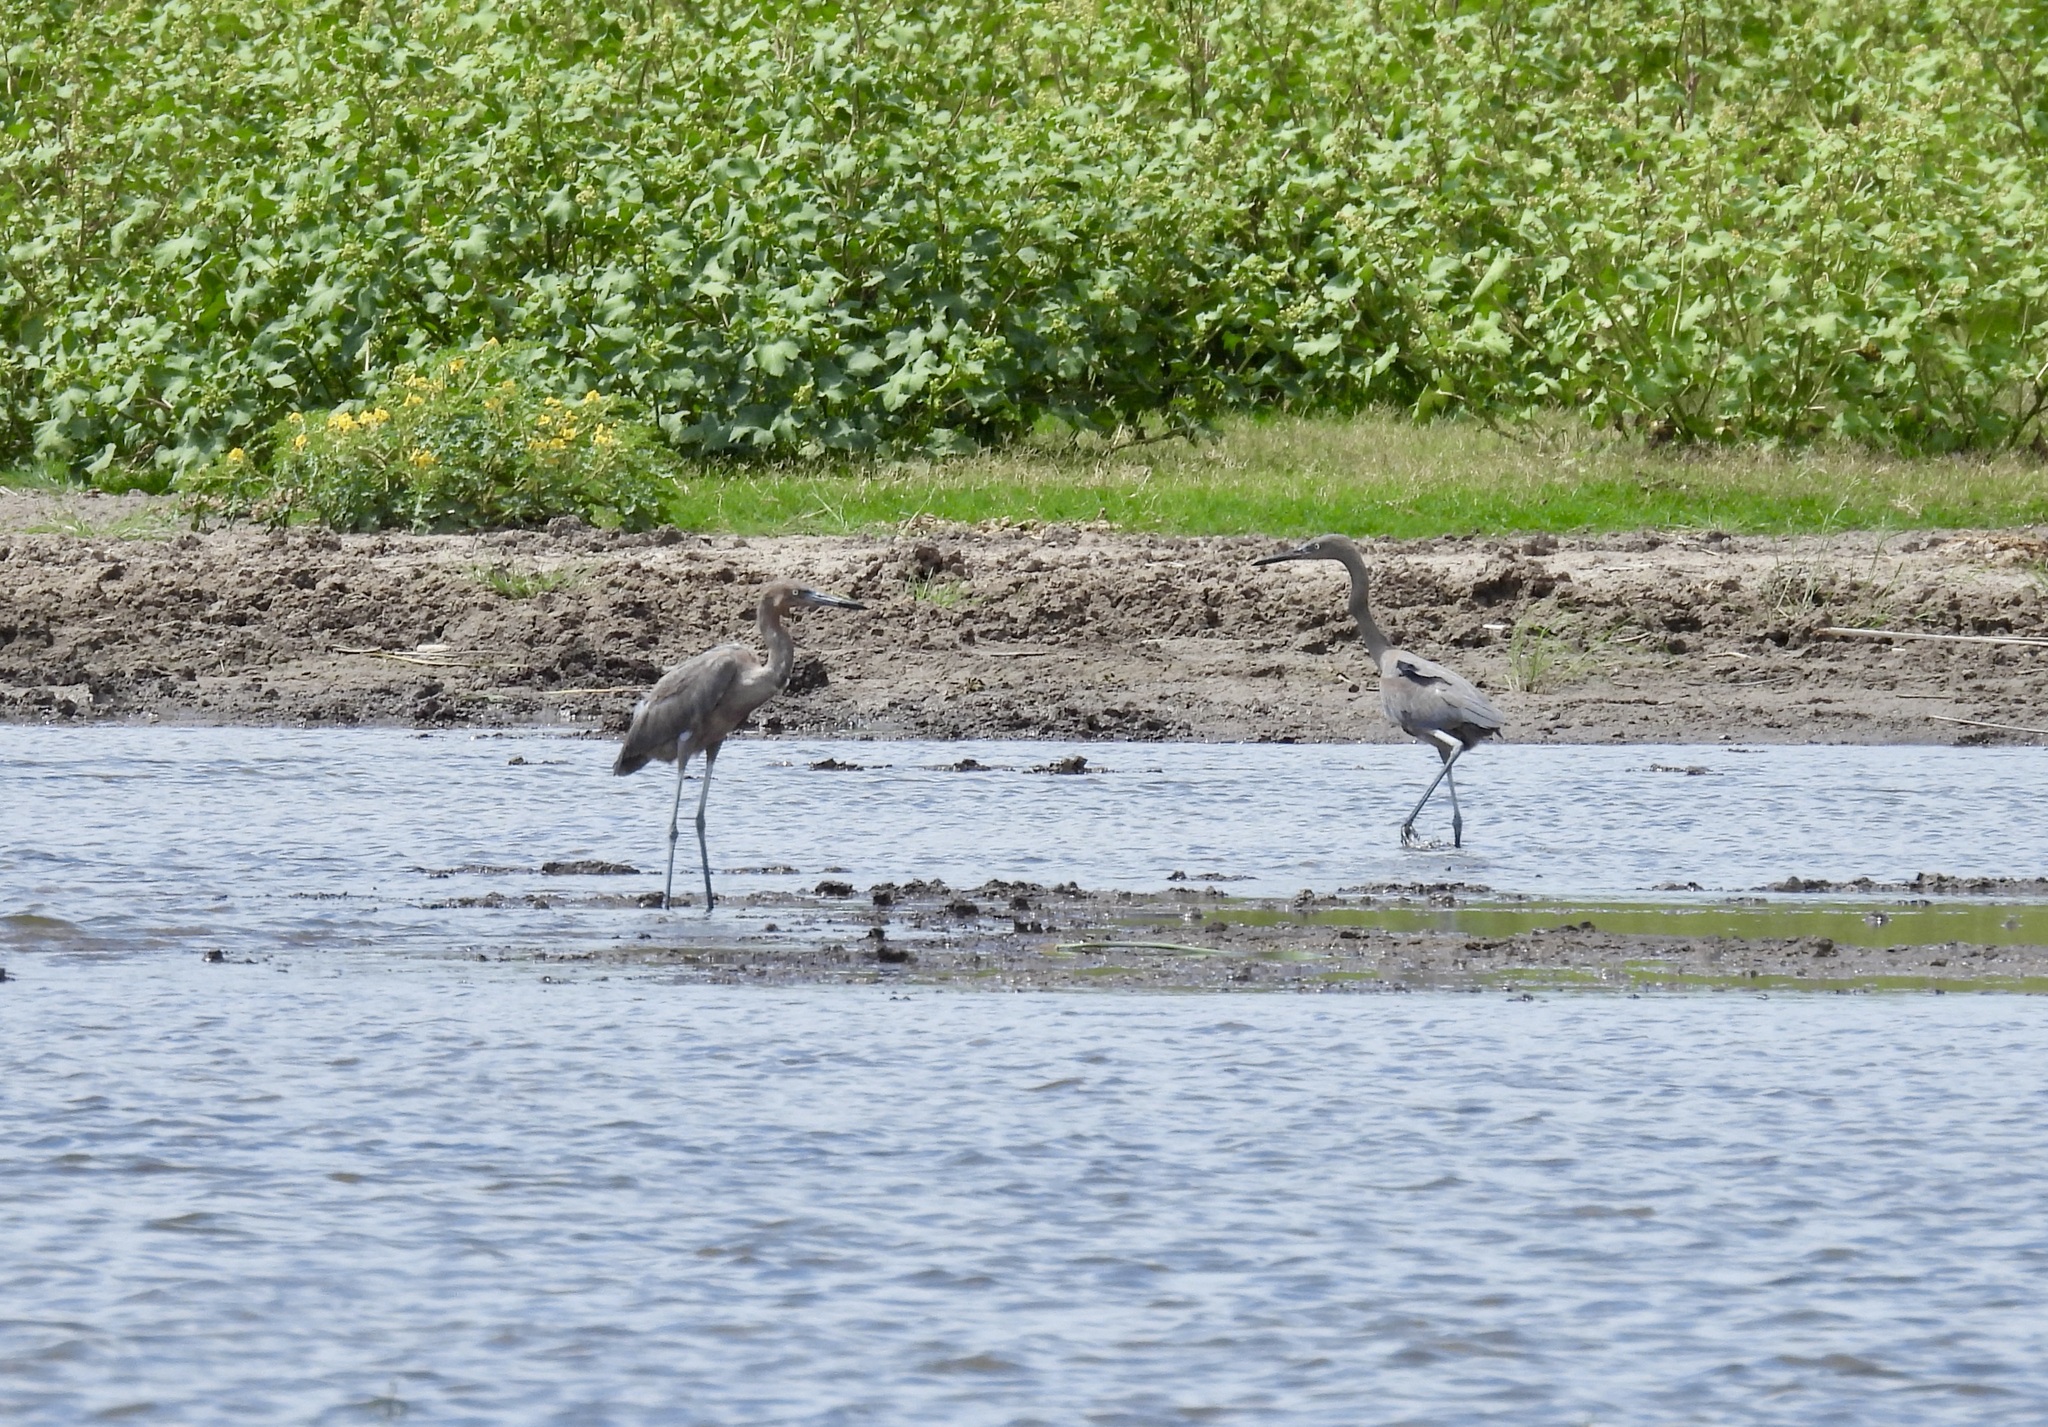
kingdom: Animalia
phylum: Chordata
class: Aves
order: Pelecaniformes
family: Ardeidae
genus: Egretta
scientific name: Egretta rufescens
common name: Reddish egret
